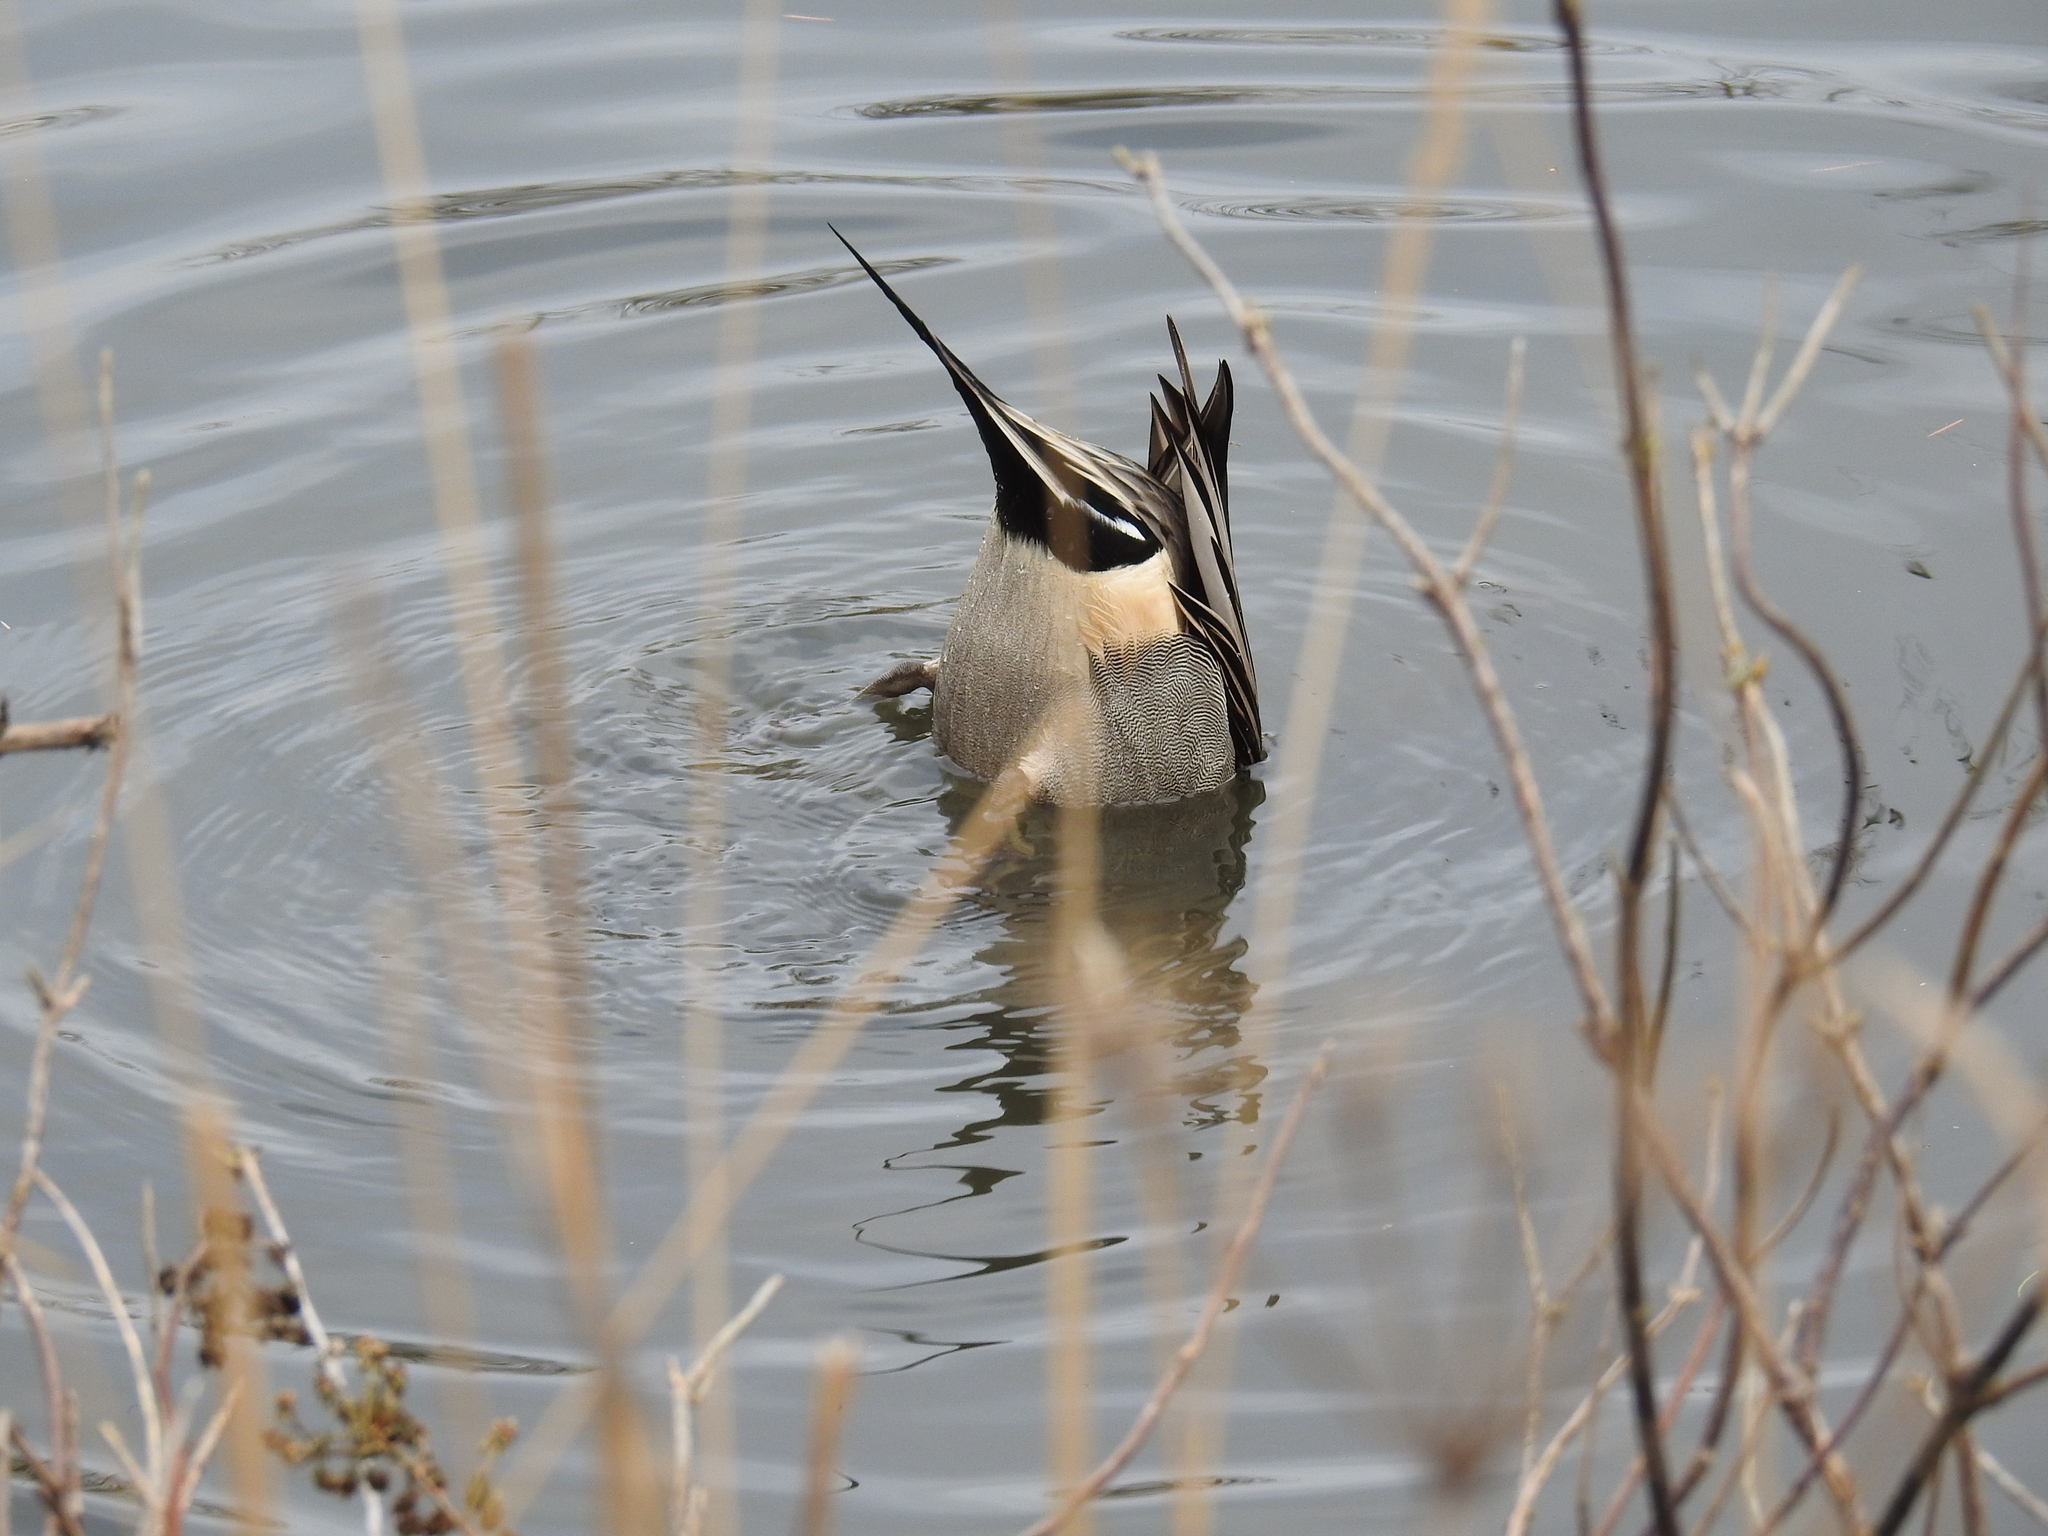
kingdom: Animalia
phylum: Chordata
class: Aves
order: Anseriformes
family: Anatidae
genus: Anas
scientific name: Anas acuta
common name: Northern pintail
